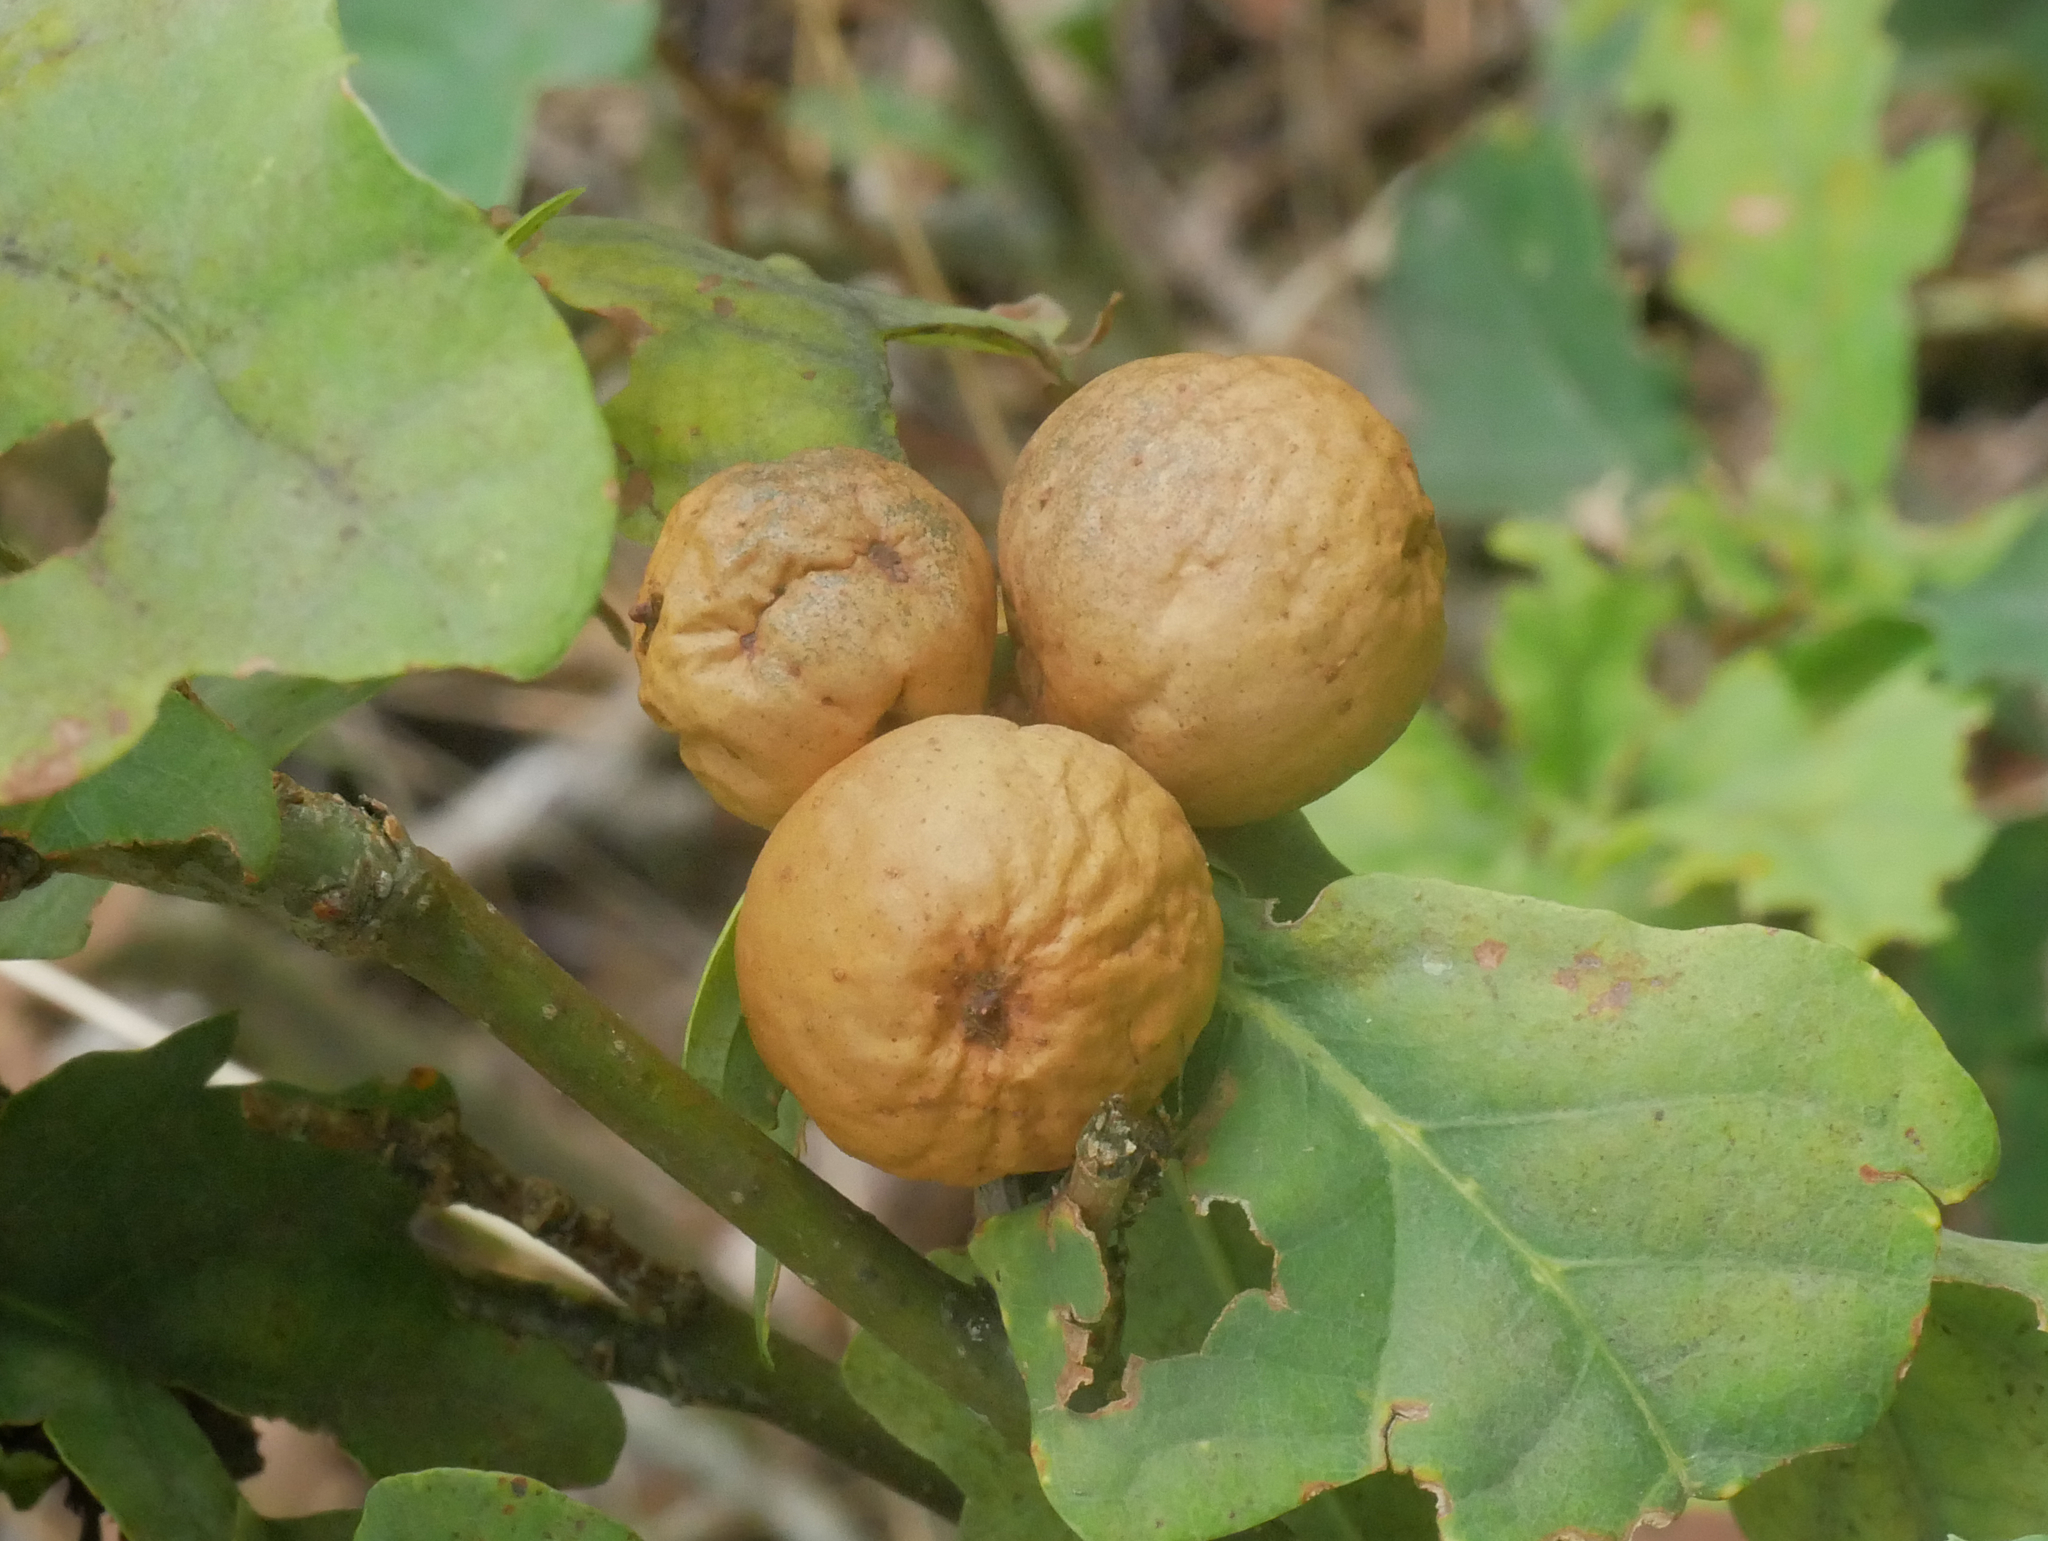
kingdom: Animalia
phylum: Arthropoda
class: Insecta
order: Hymenoptera
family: Cynipidae
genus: Andricus
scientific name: Andricus kollari
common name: Marble gall
